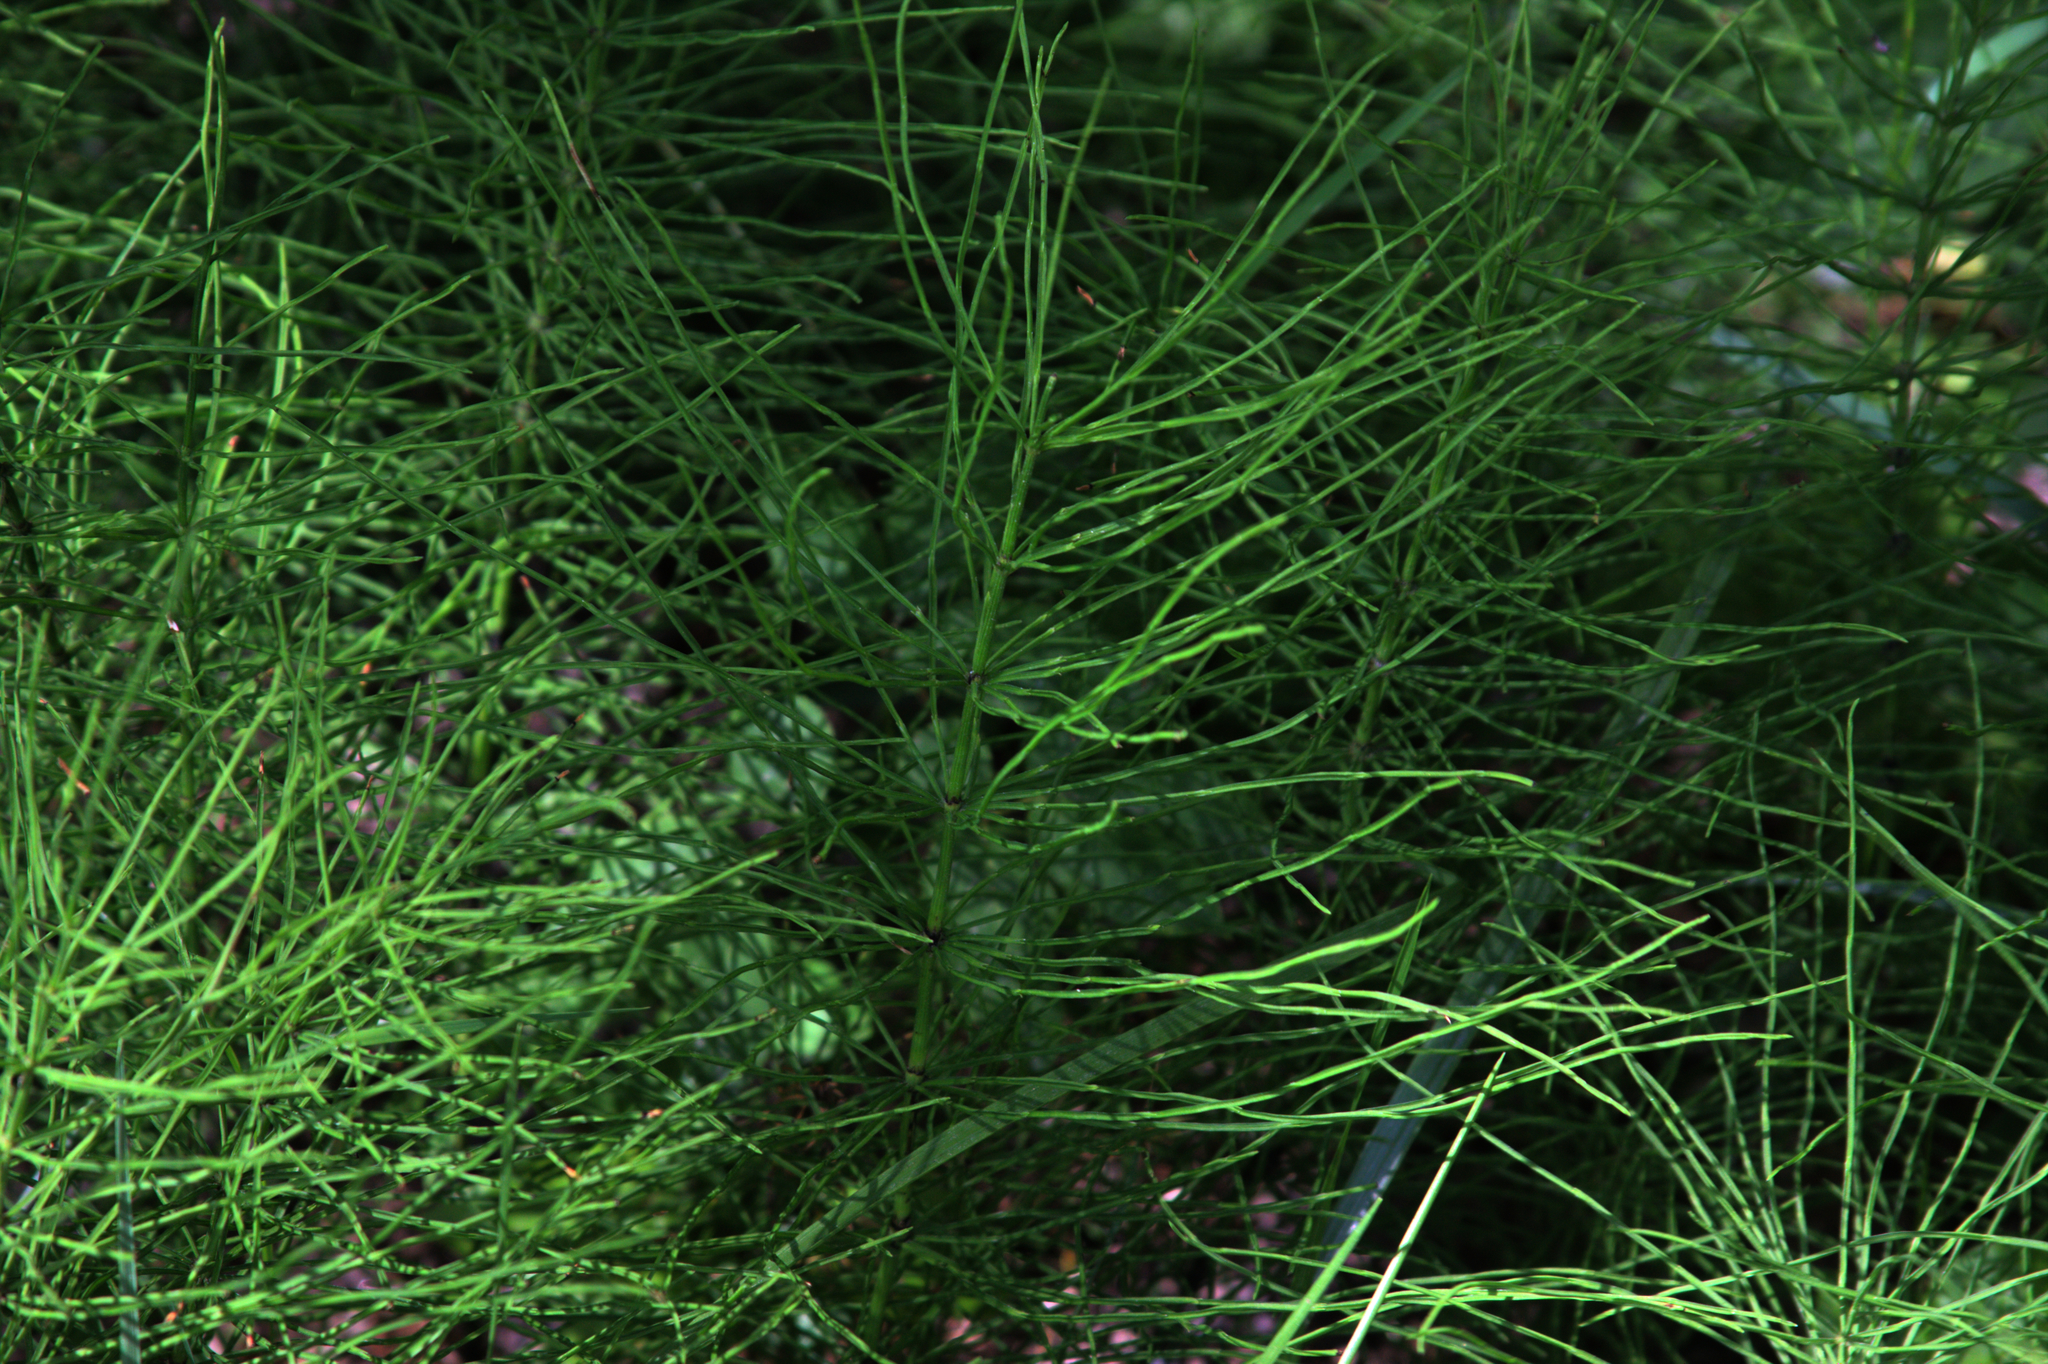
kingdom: Plantae
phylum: Tracheophyta
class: Polypodiopsida
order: Equisetales
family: Equisetaceae
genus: Equisetum
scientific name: Equisetum arvense
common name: Field horsetail
